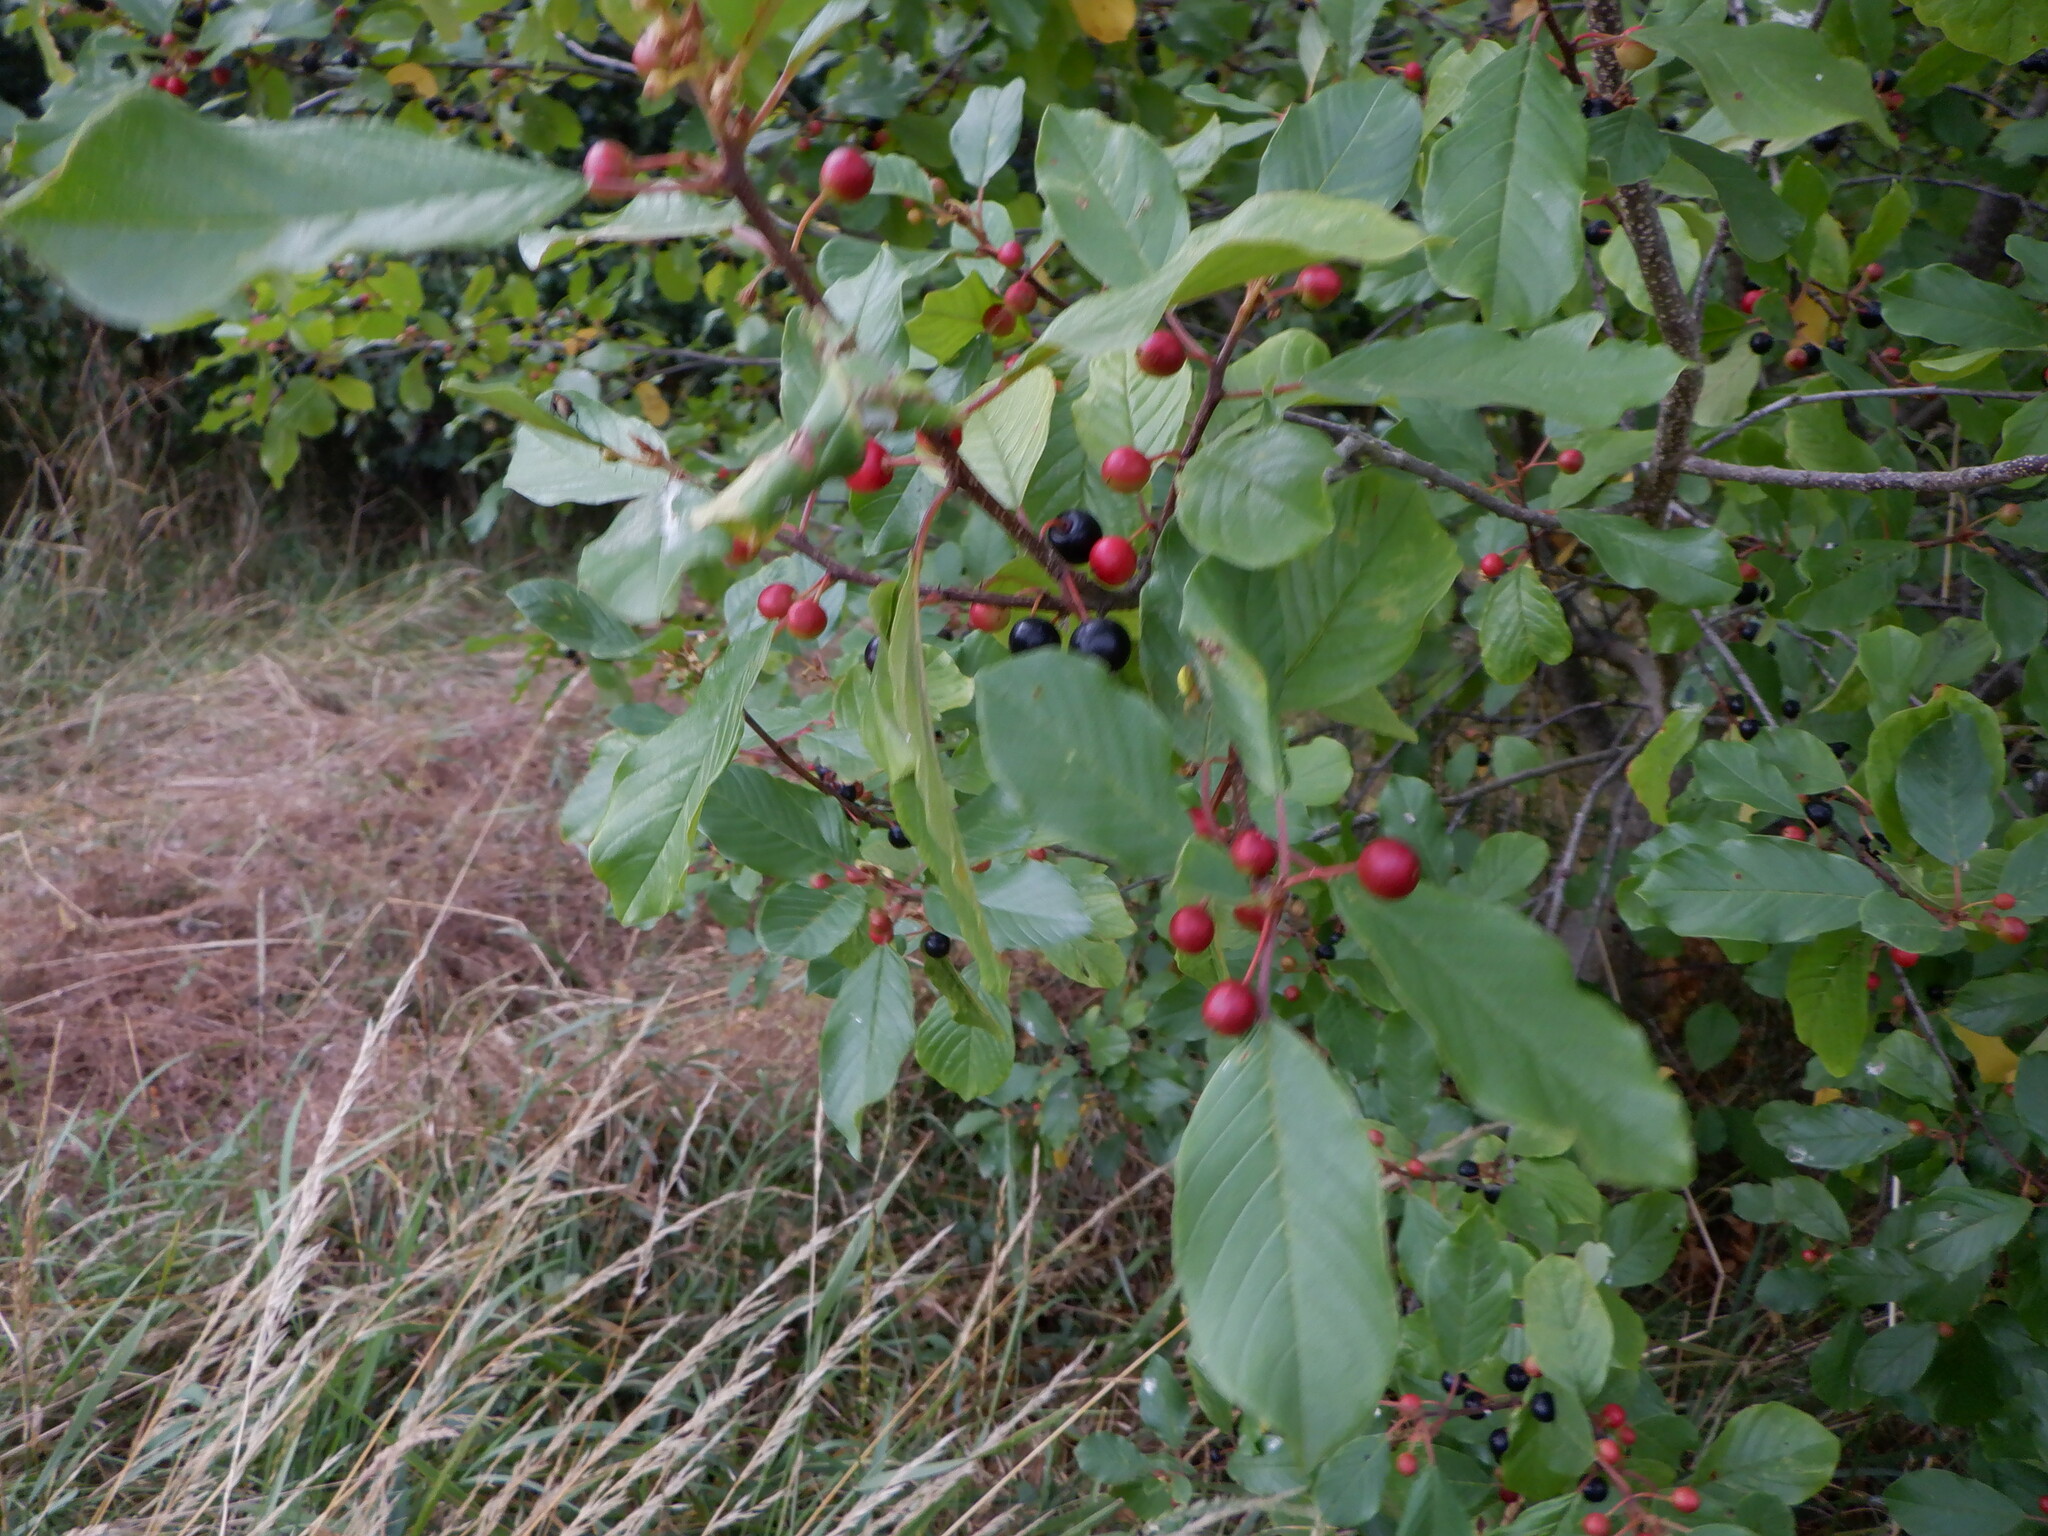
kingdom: Plantae
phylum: Tracheophyta
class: Magnoliopsida
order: Rosales
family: Rhamnaceae
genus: Frangula
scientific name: Frangula alnus
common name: Alder buckthorn
